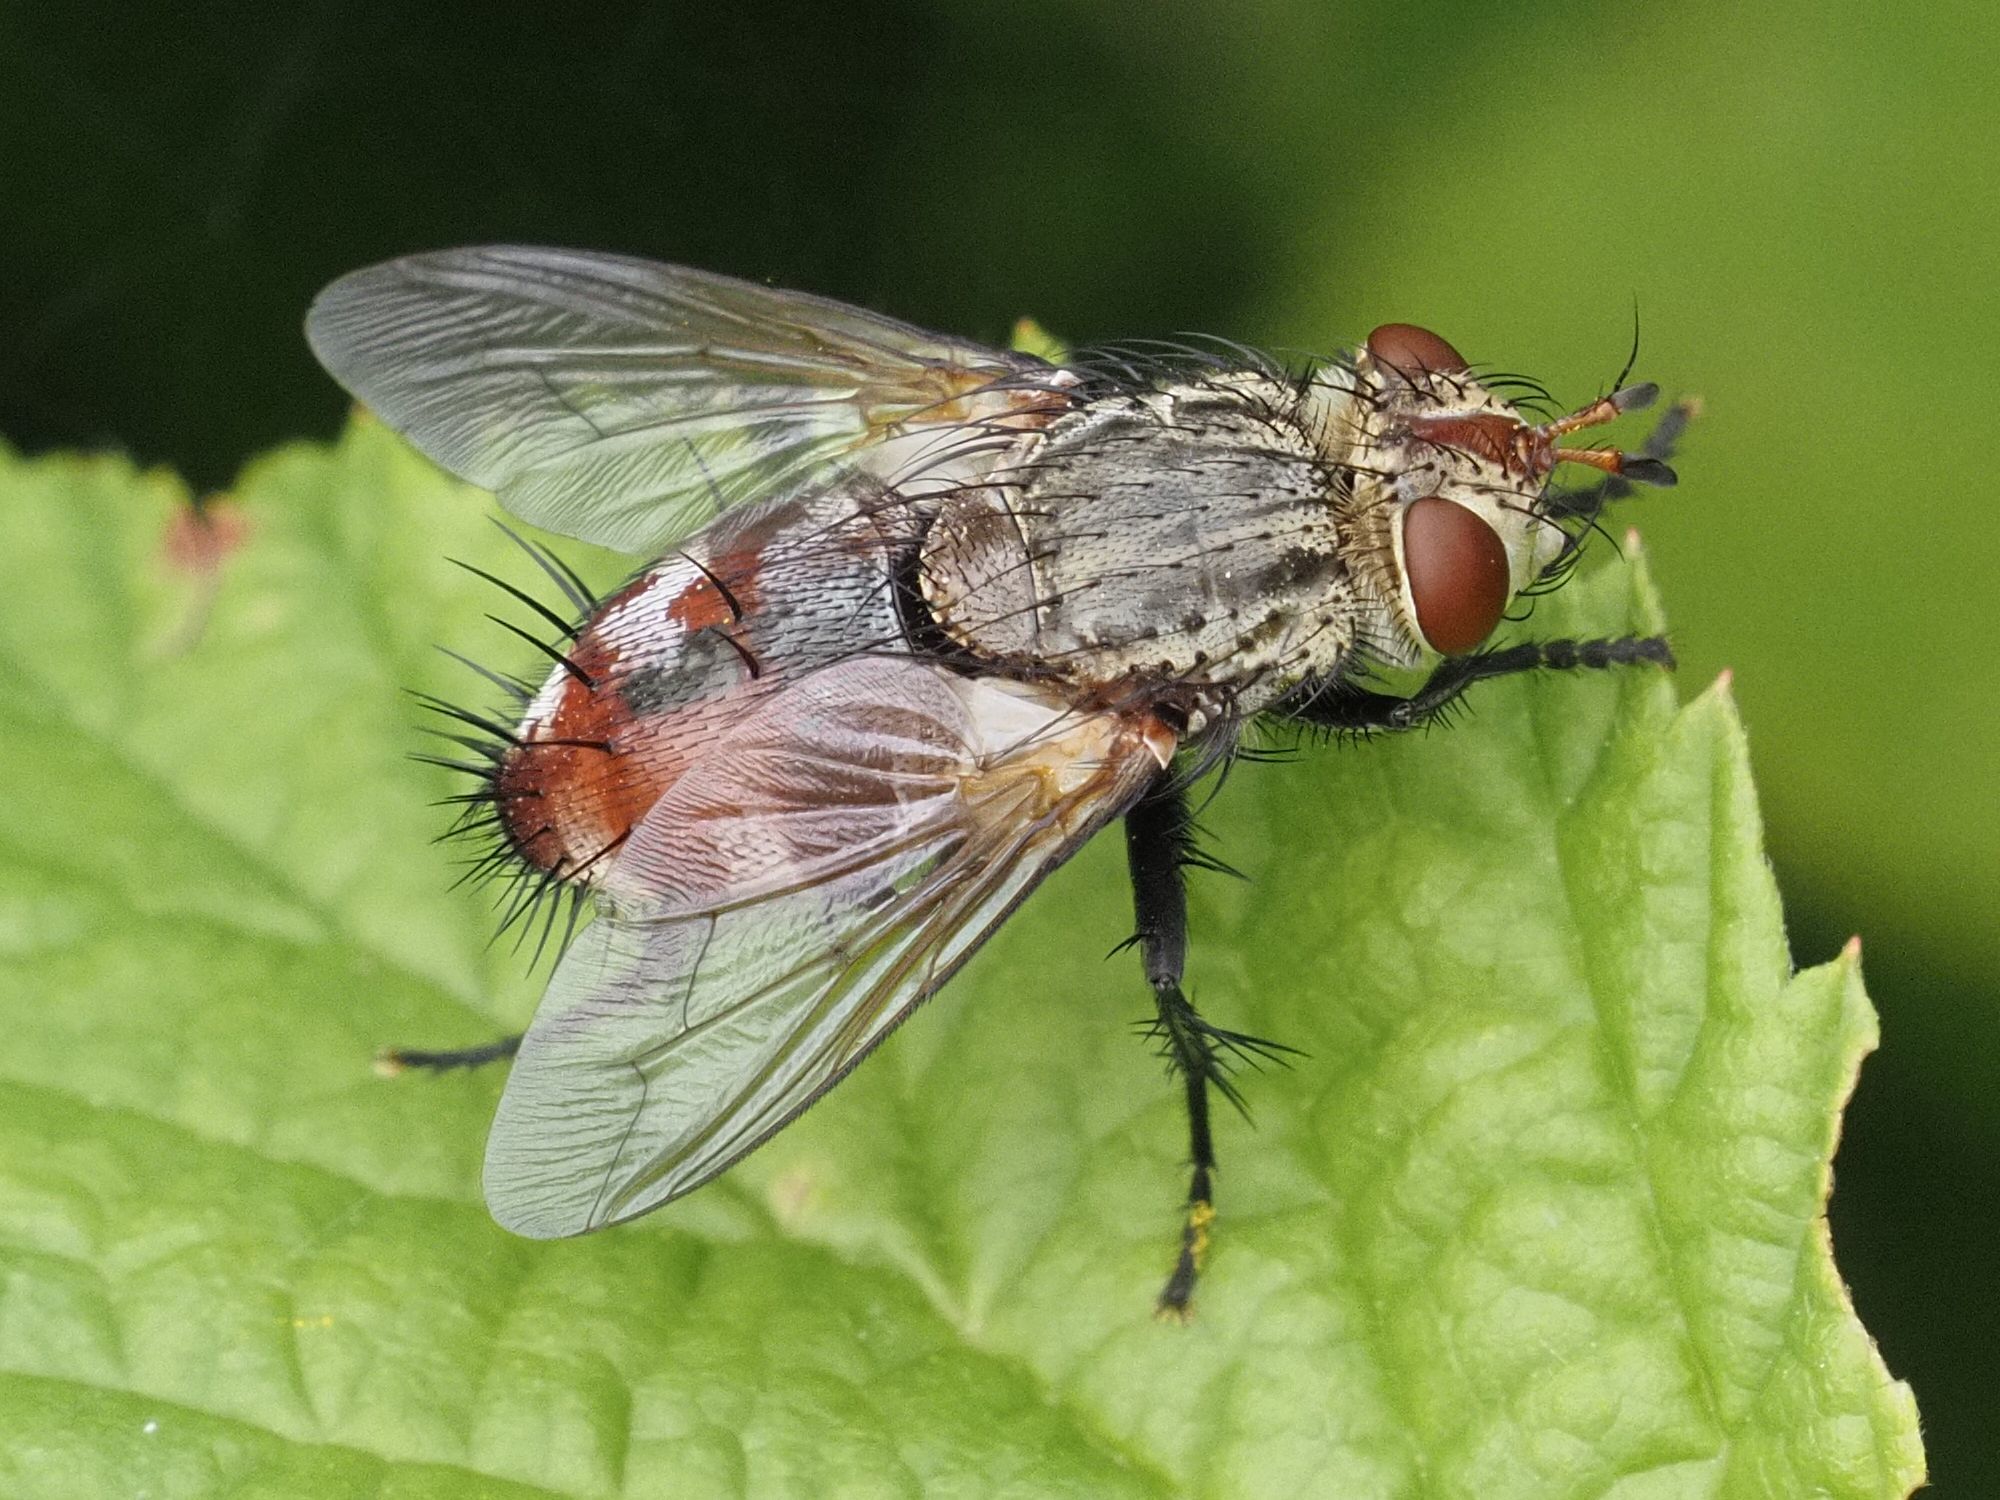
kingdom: Animalia
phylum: Arthropoda
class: Insecta
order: Diptera
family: Tachinidae
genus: Peleteria
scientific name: Peleteria javana
